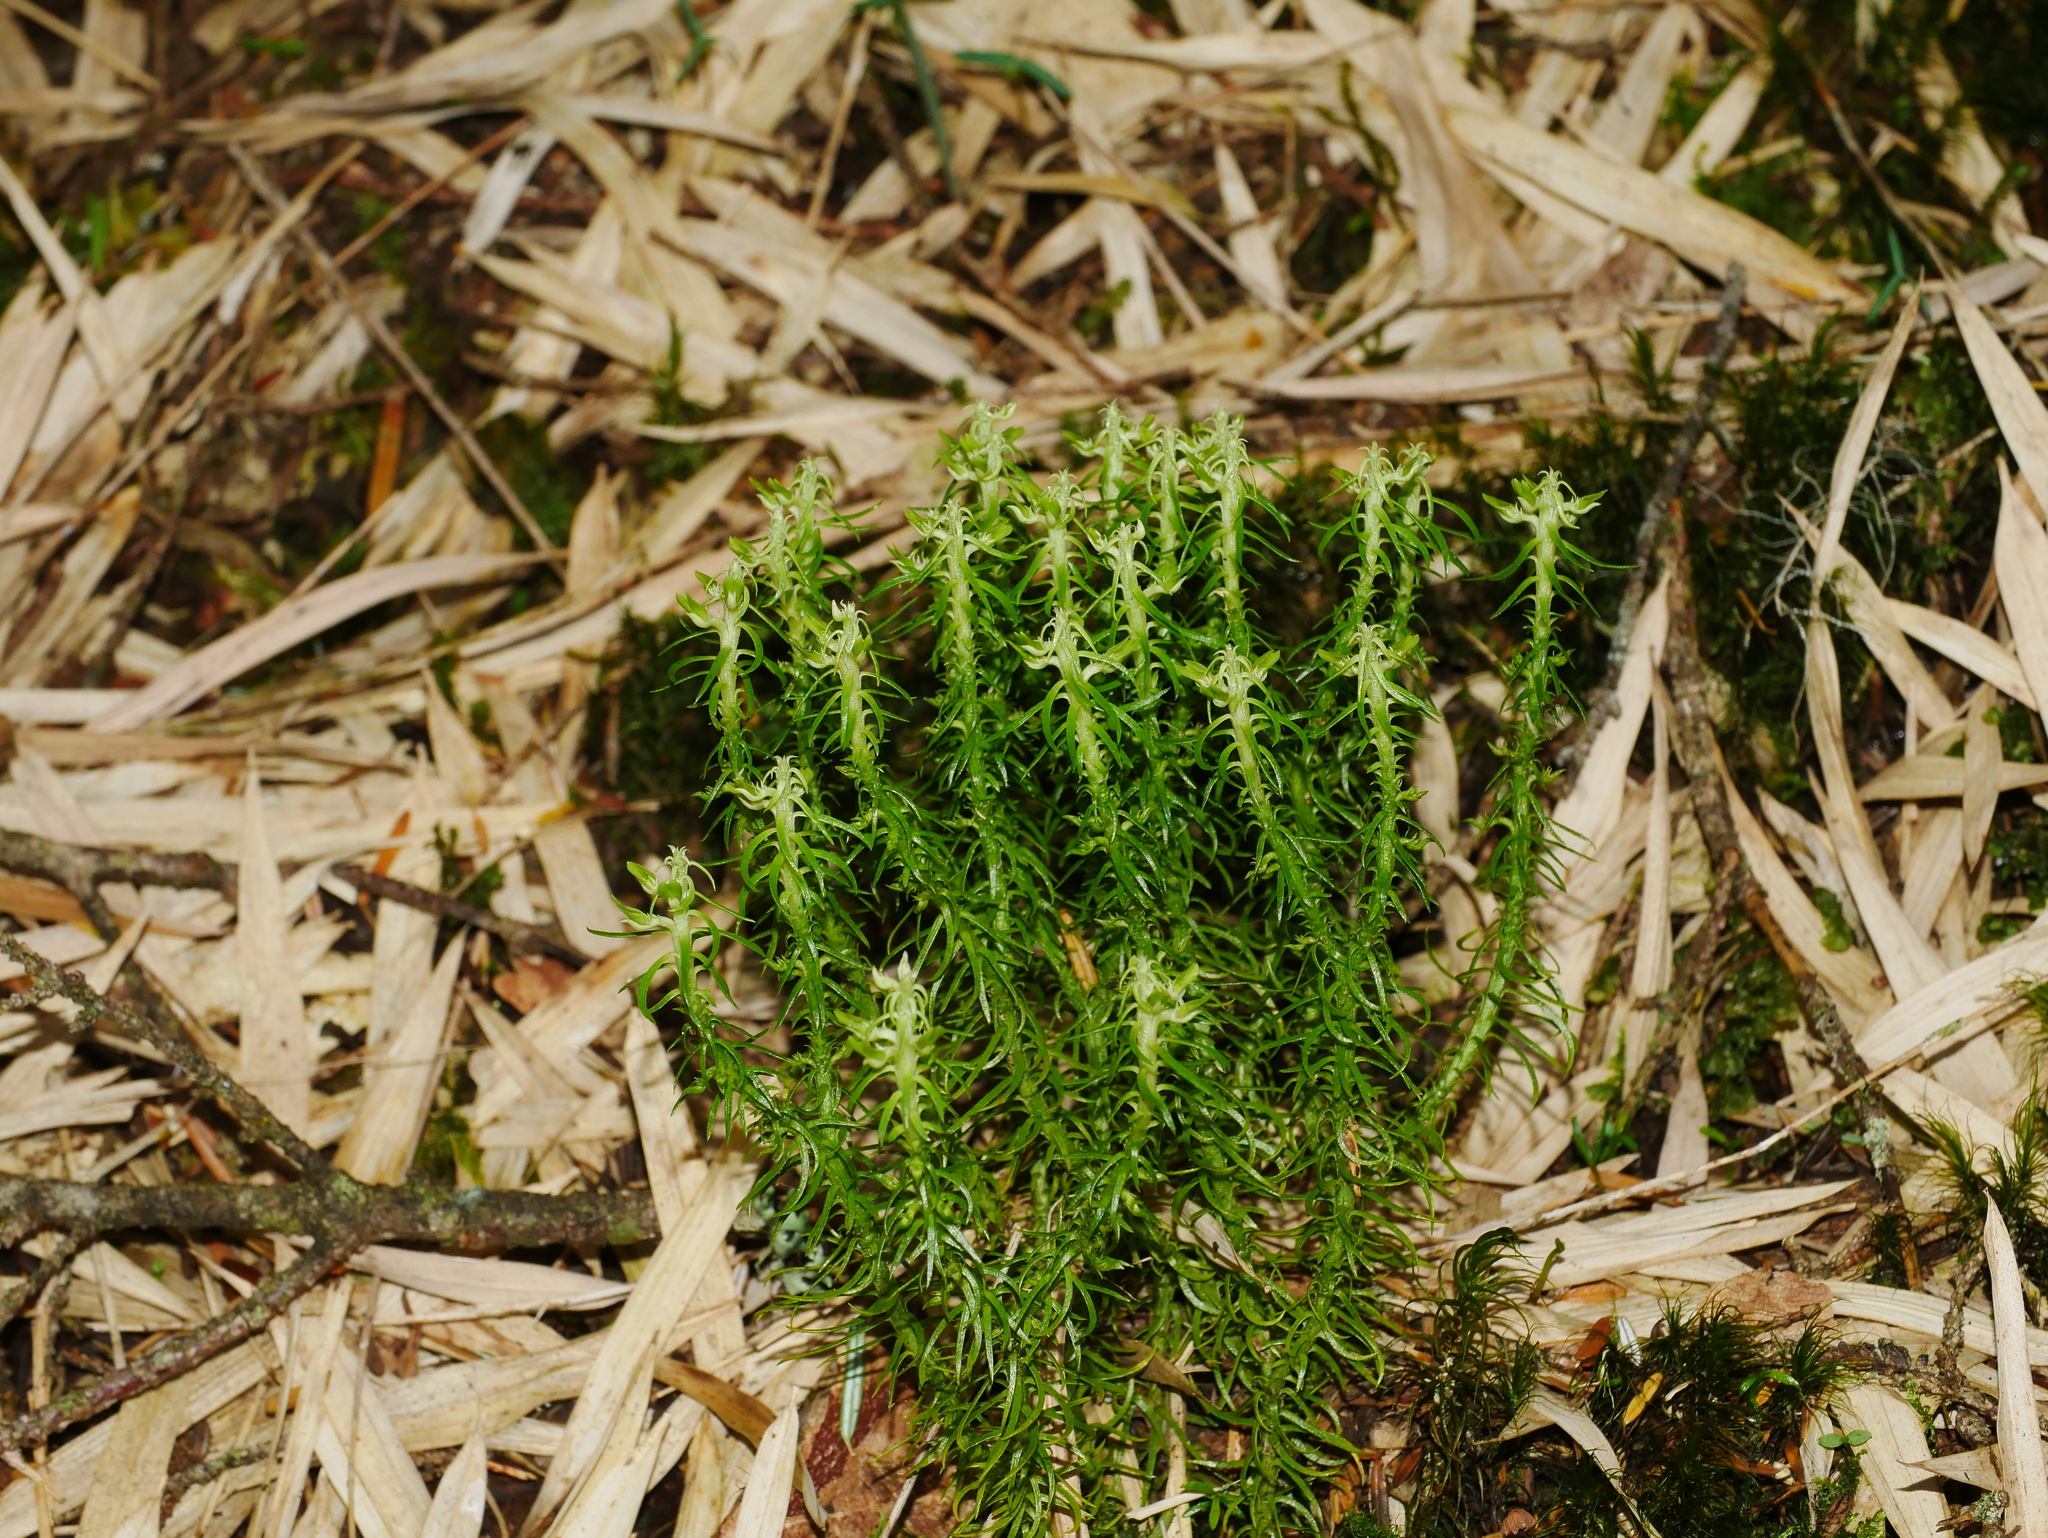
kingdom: Plantae
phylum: Tracheophyta
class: Lycopodiopsida
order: Lycopodiales
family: Lycopodiaceae
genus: Huperzia
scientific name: Huperzia quasipolytrichoides
